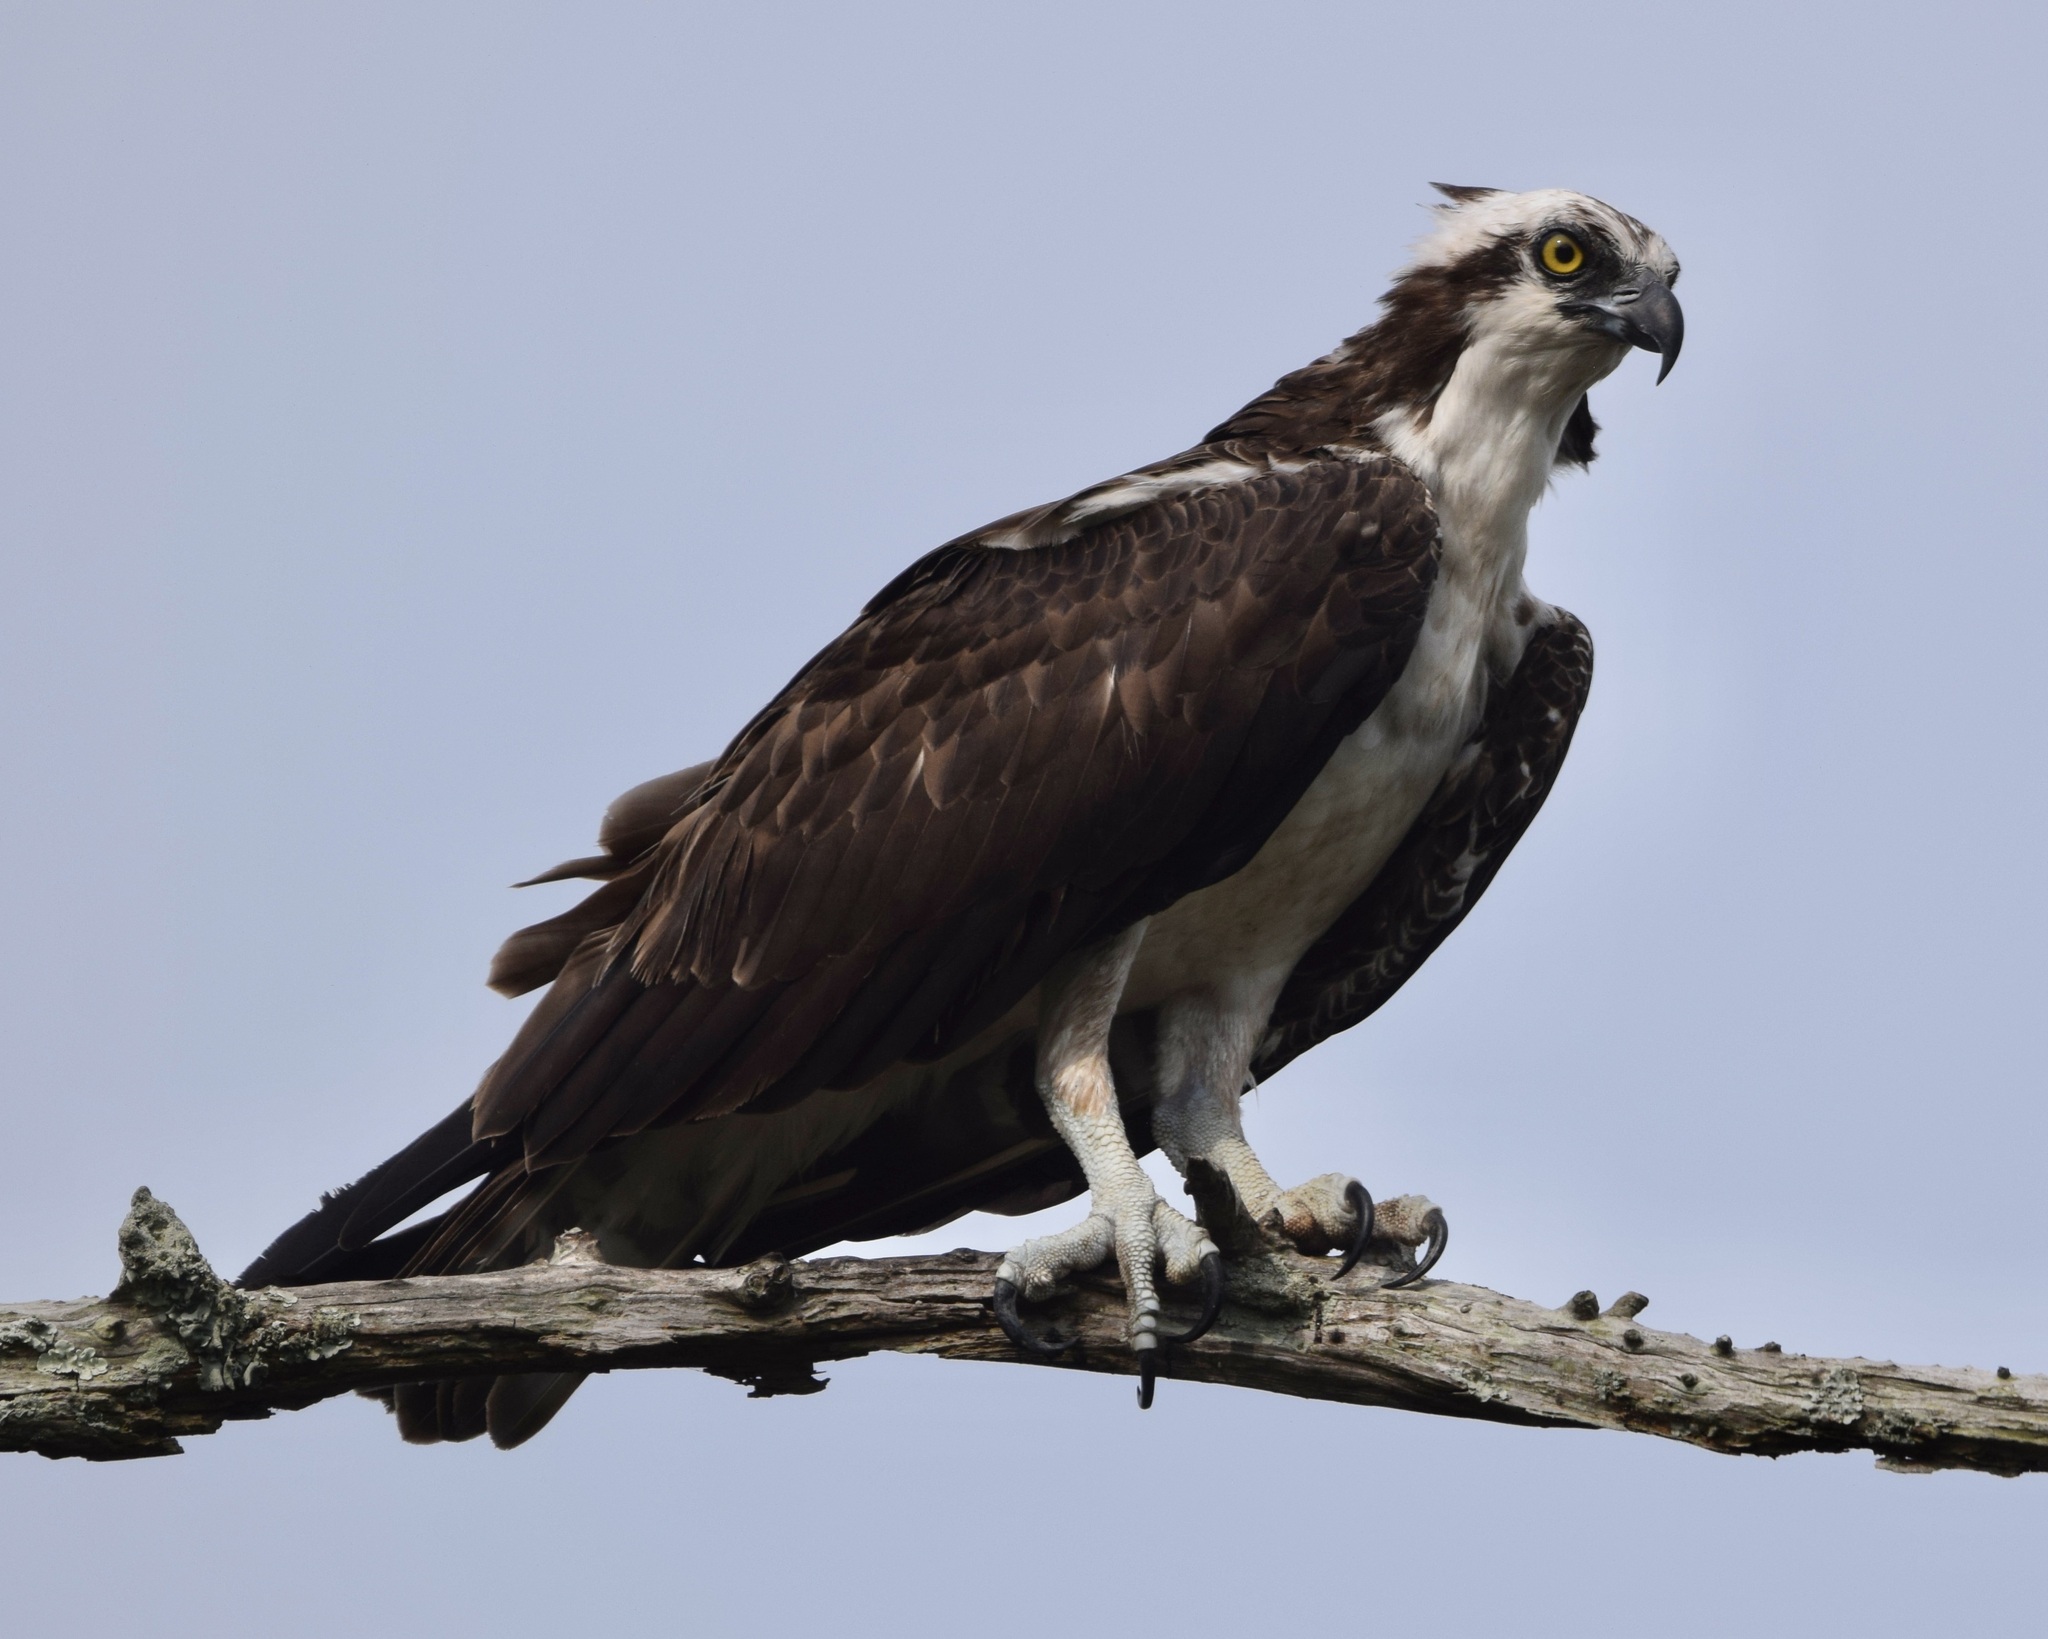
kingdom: Animalia
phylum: Chordata
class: Aves
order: Accipitriformes
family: Pandionidae
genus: Pandion
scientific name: Pandion haliaetus
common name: Osprey
